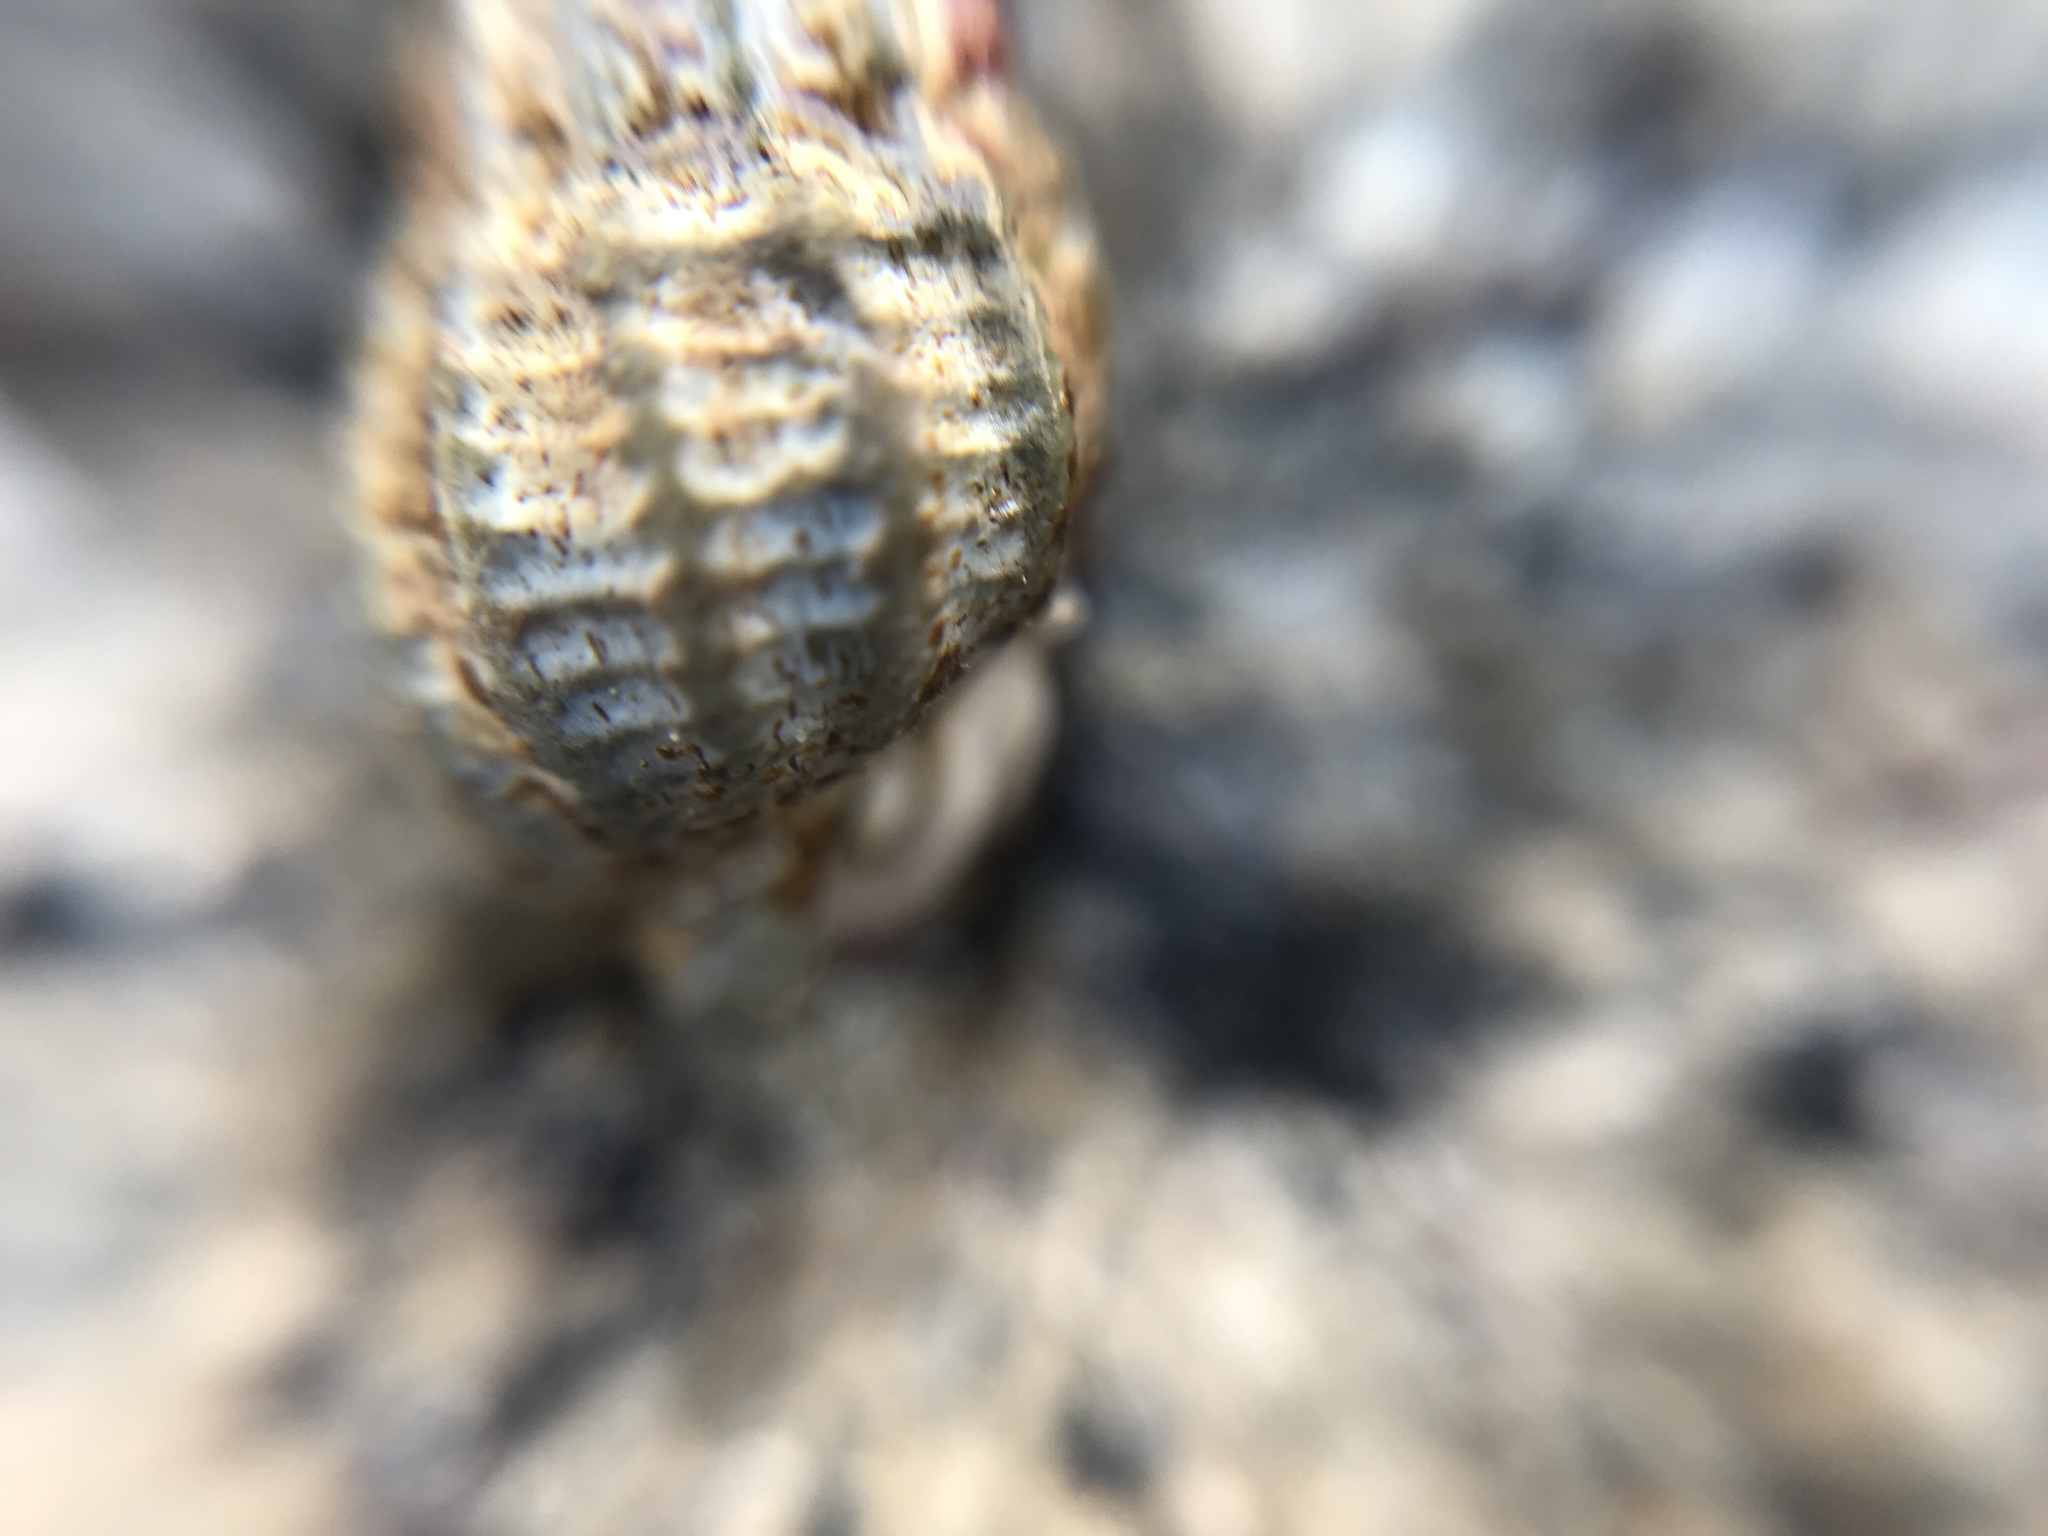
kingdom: Animalia
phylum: Mollusca
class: Gastropoda
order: Neogastropoda
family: Nassariidae
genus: Ilyanassa
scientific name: Ilyanassa trivittata
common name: Three-line mudsnail
